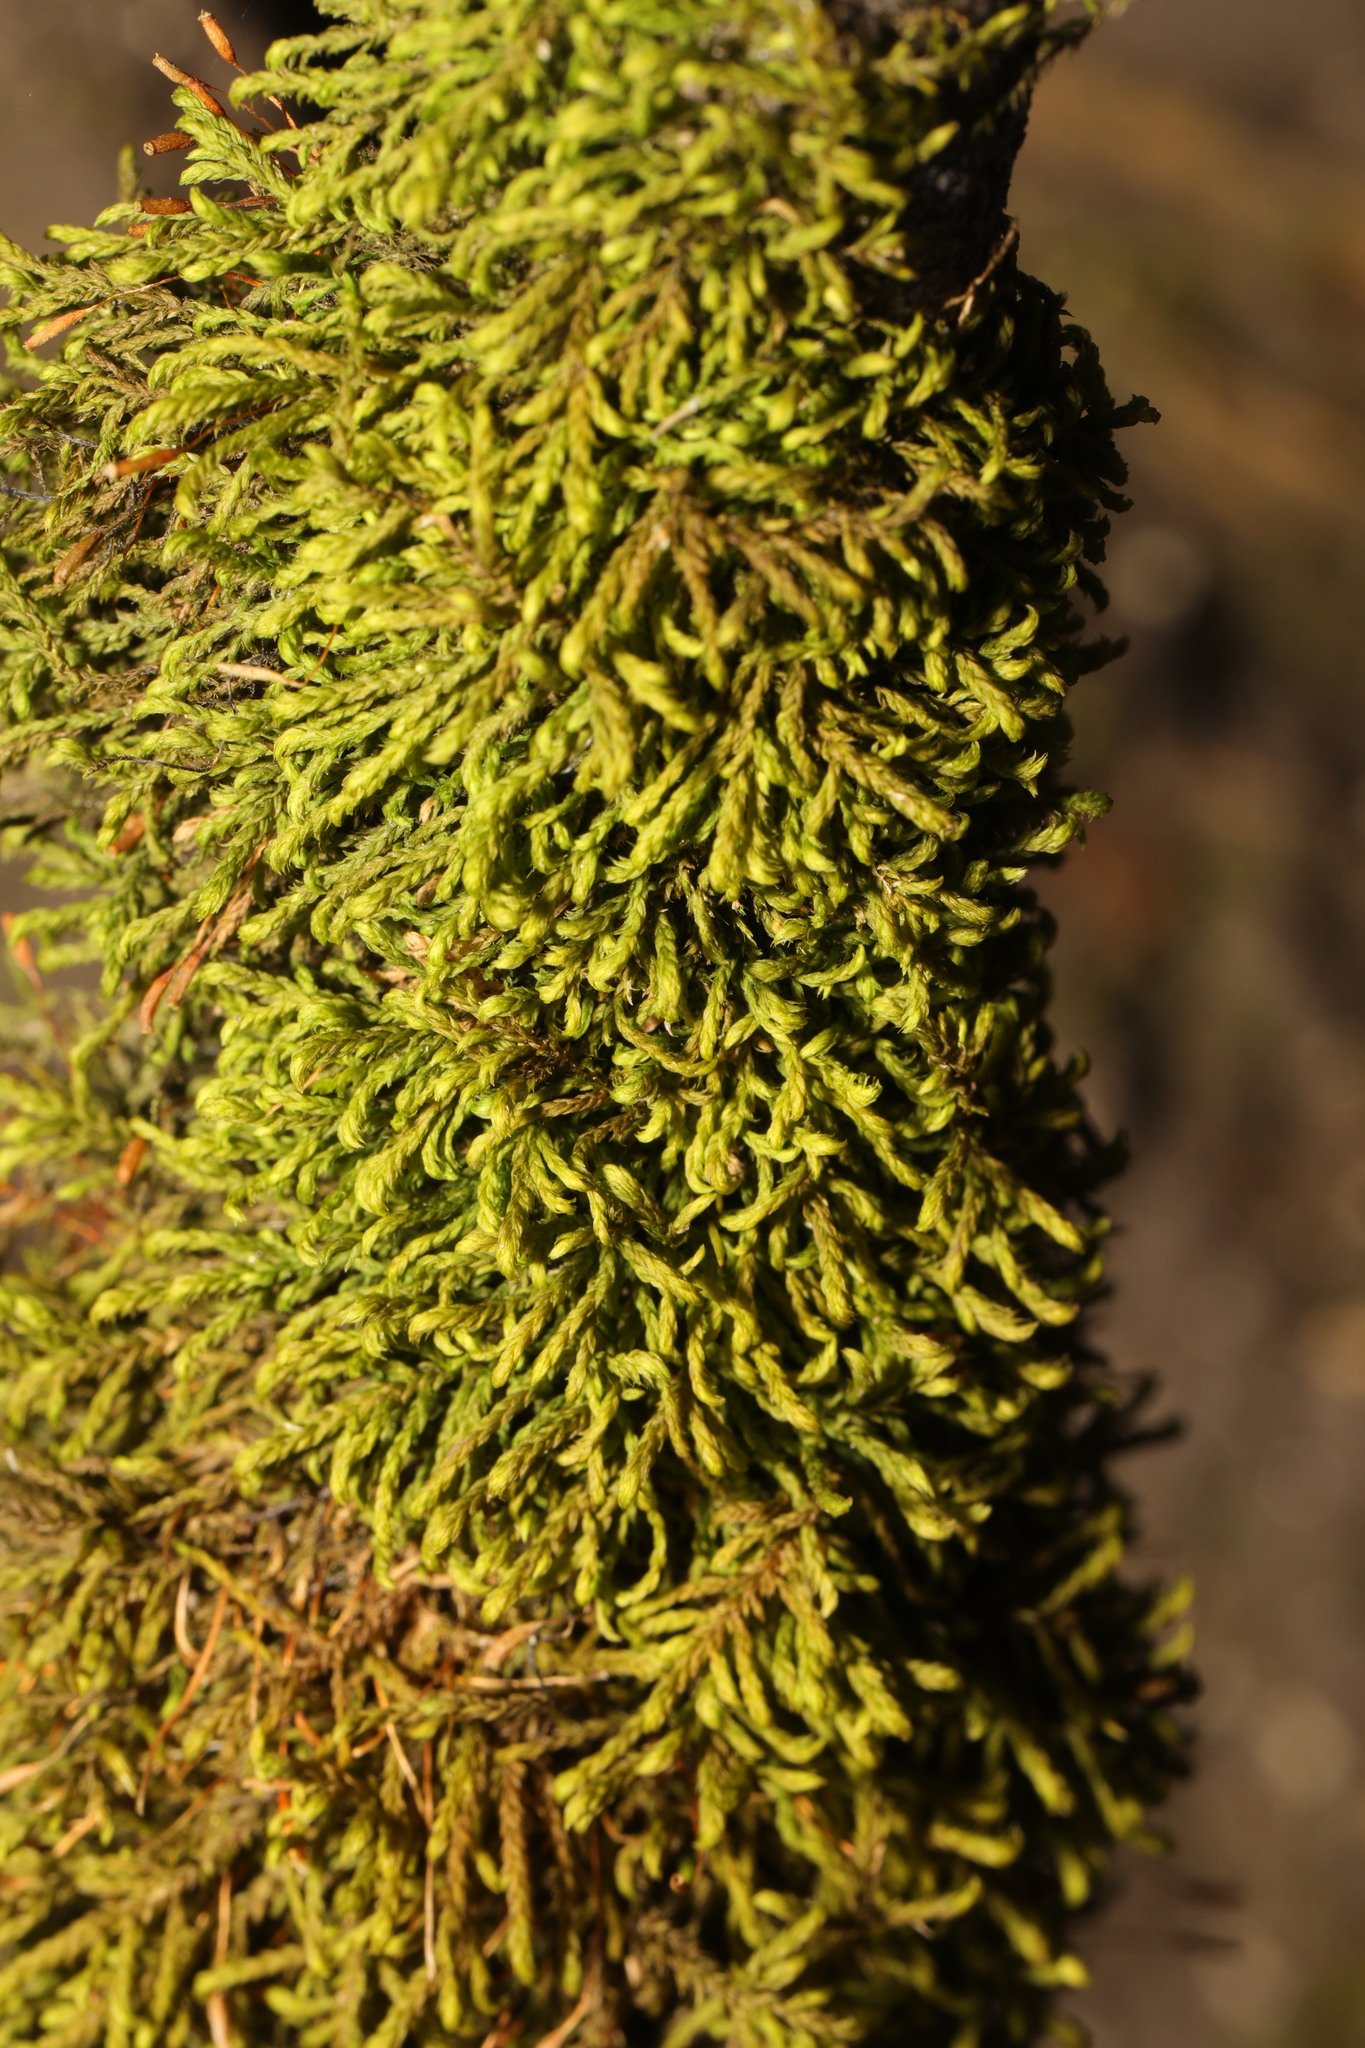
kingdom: Plantae
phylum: Bryophyta
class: Bryopsida
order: Hypnales
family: Pterigynandraceae
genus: Pterigynandrum
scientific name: Pterigynandrum filiforme
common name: Capillary wing moss
